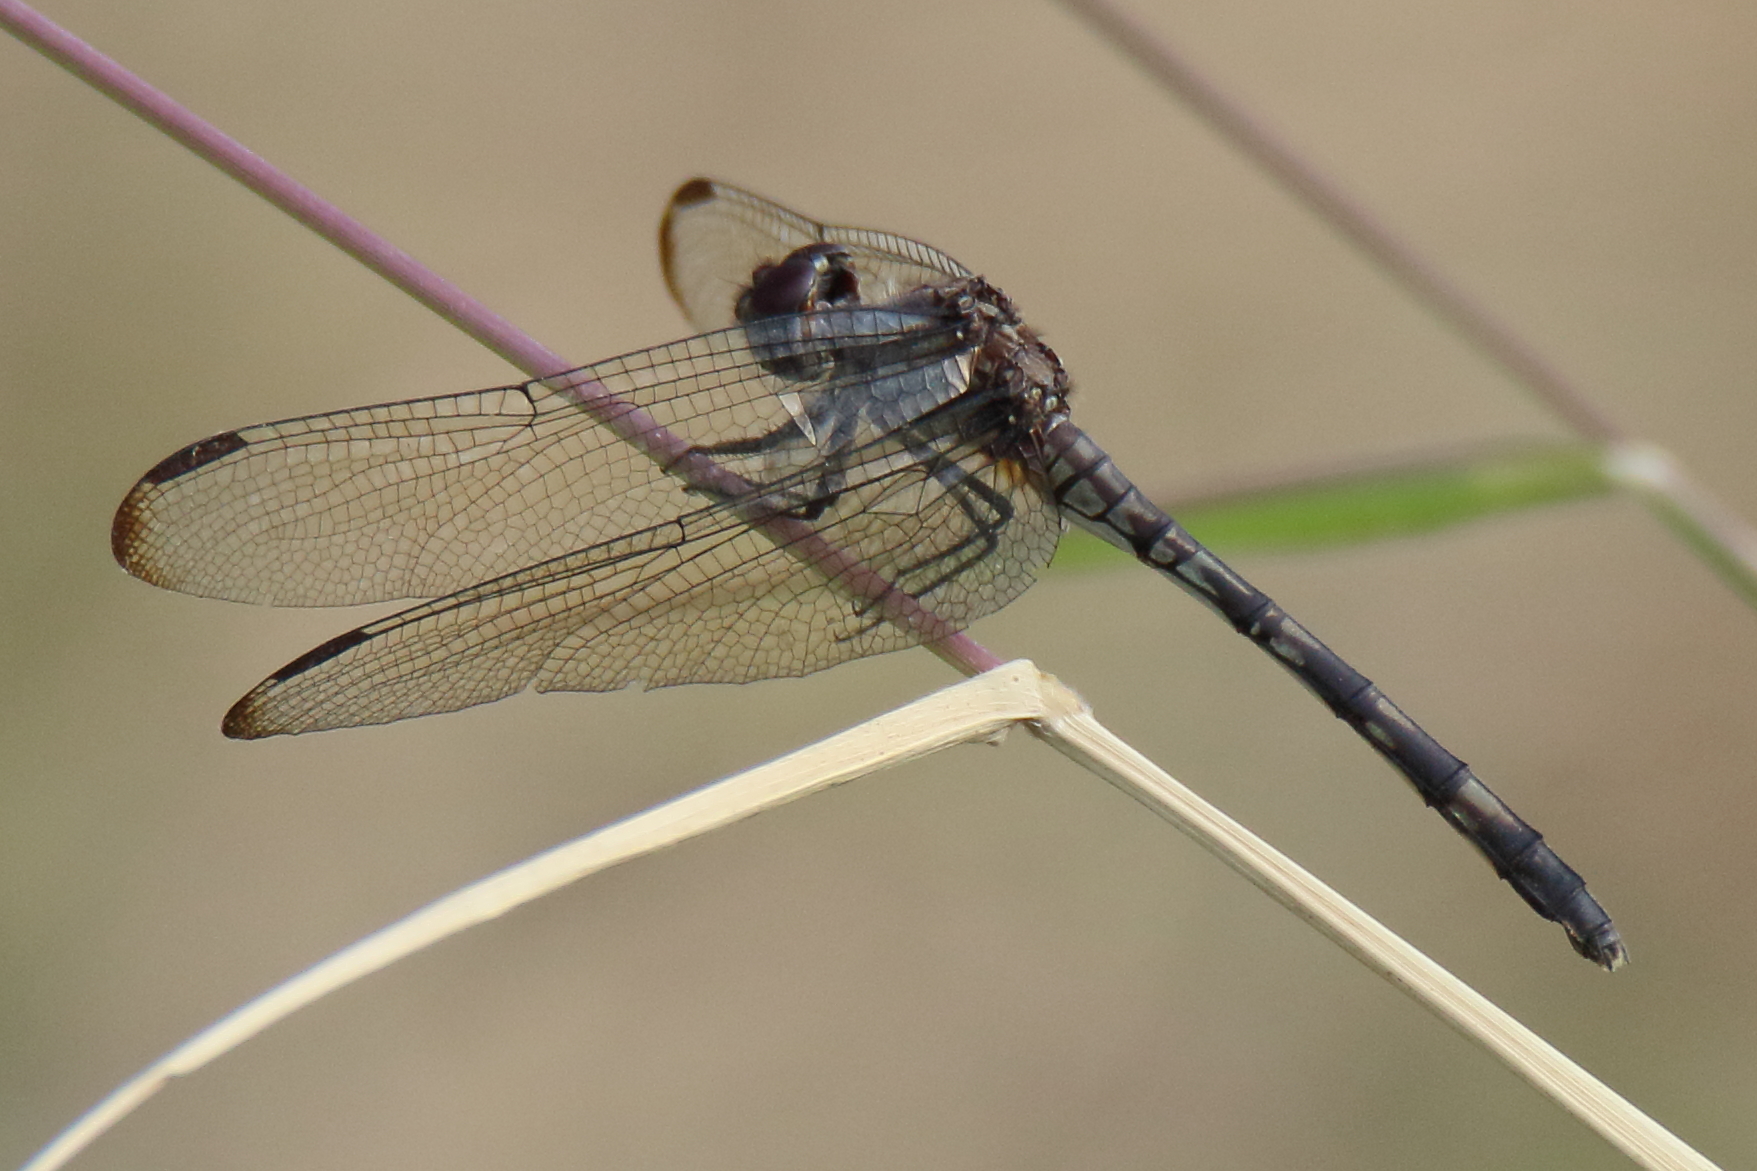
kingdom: Animalia
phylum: Arthropoda
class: Insecta
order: Odonata
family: Libellulidae
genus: Dythemis
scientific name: Dythemis nigrescens
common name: Black setwing
